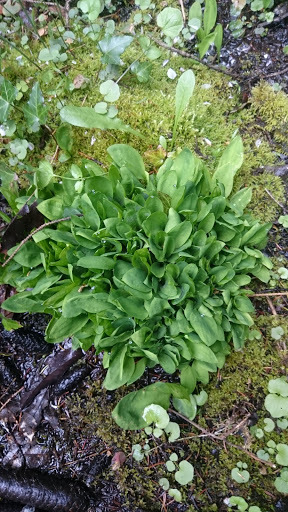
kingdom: Plantae
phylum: Tracheophyta
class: Liliopsida
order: Alismatales
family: Araceae
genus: Lysichiton
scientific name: Lysichiton americanus
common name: American skunk cabbage
